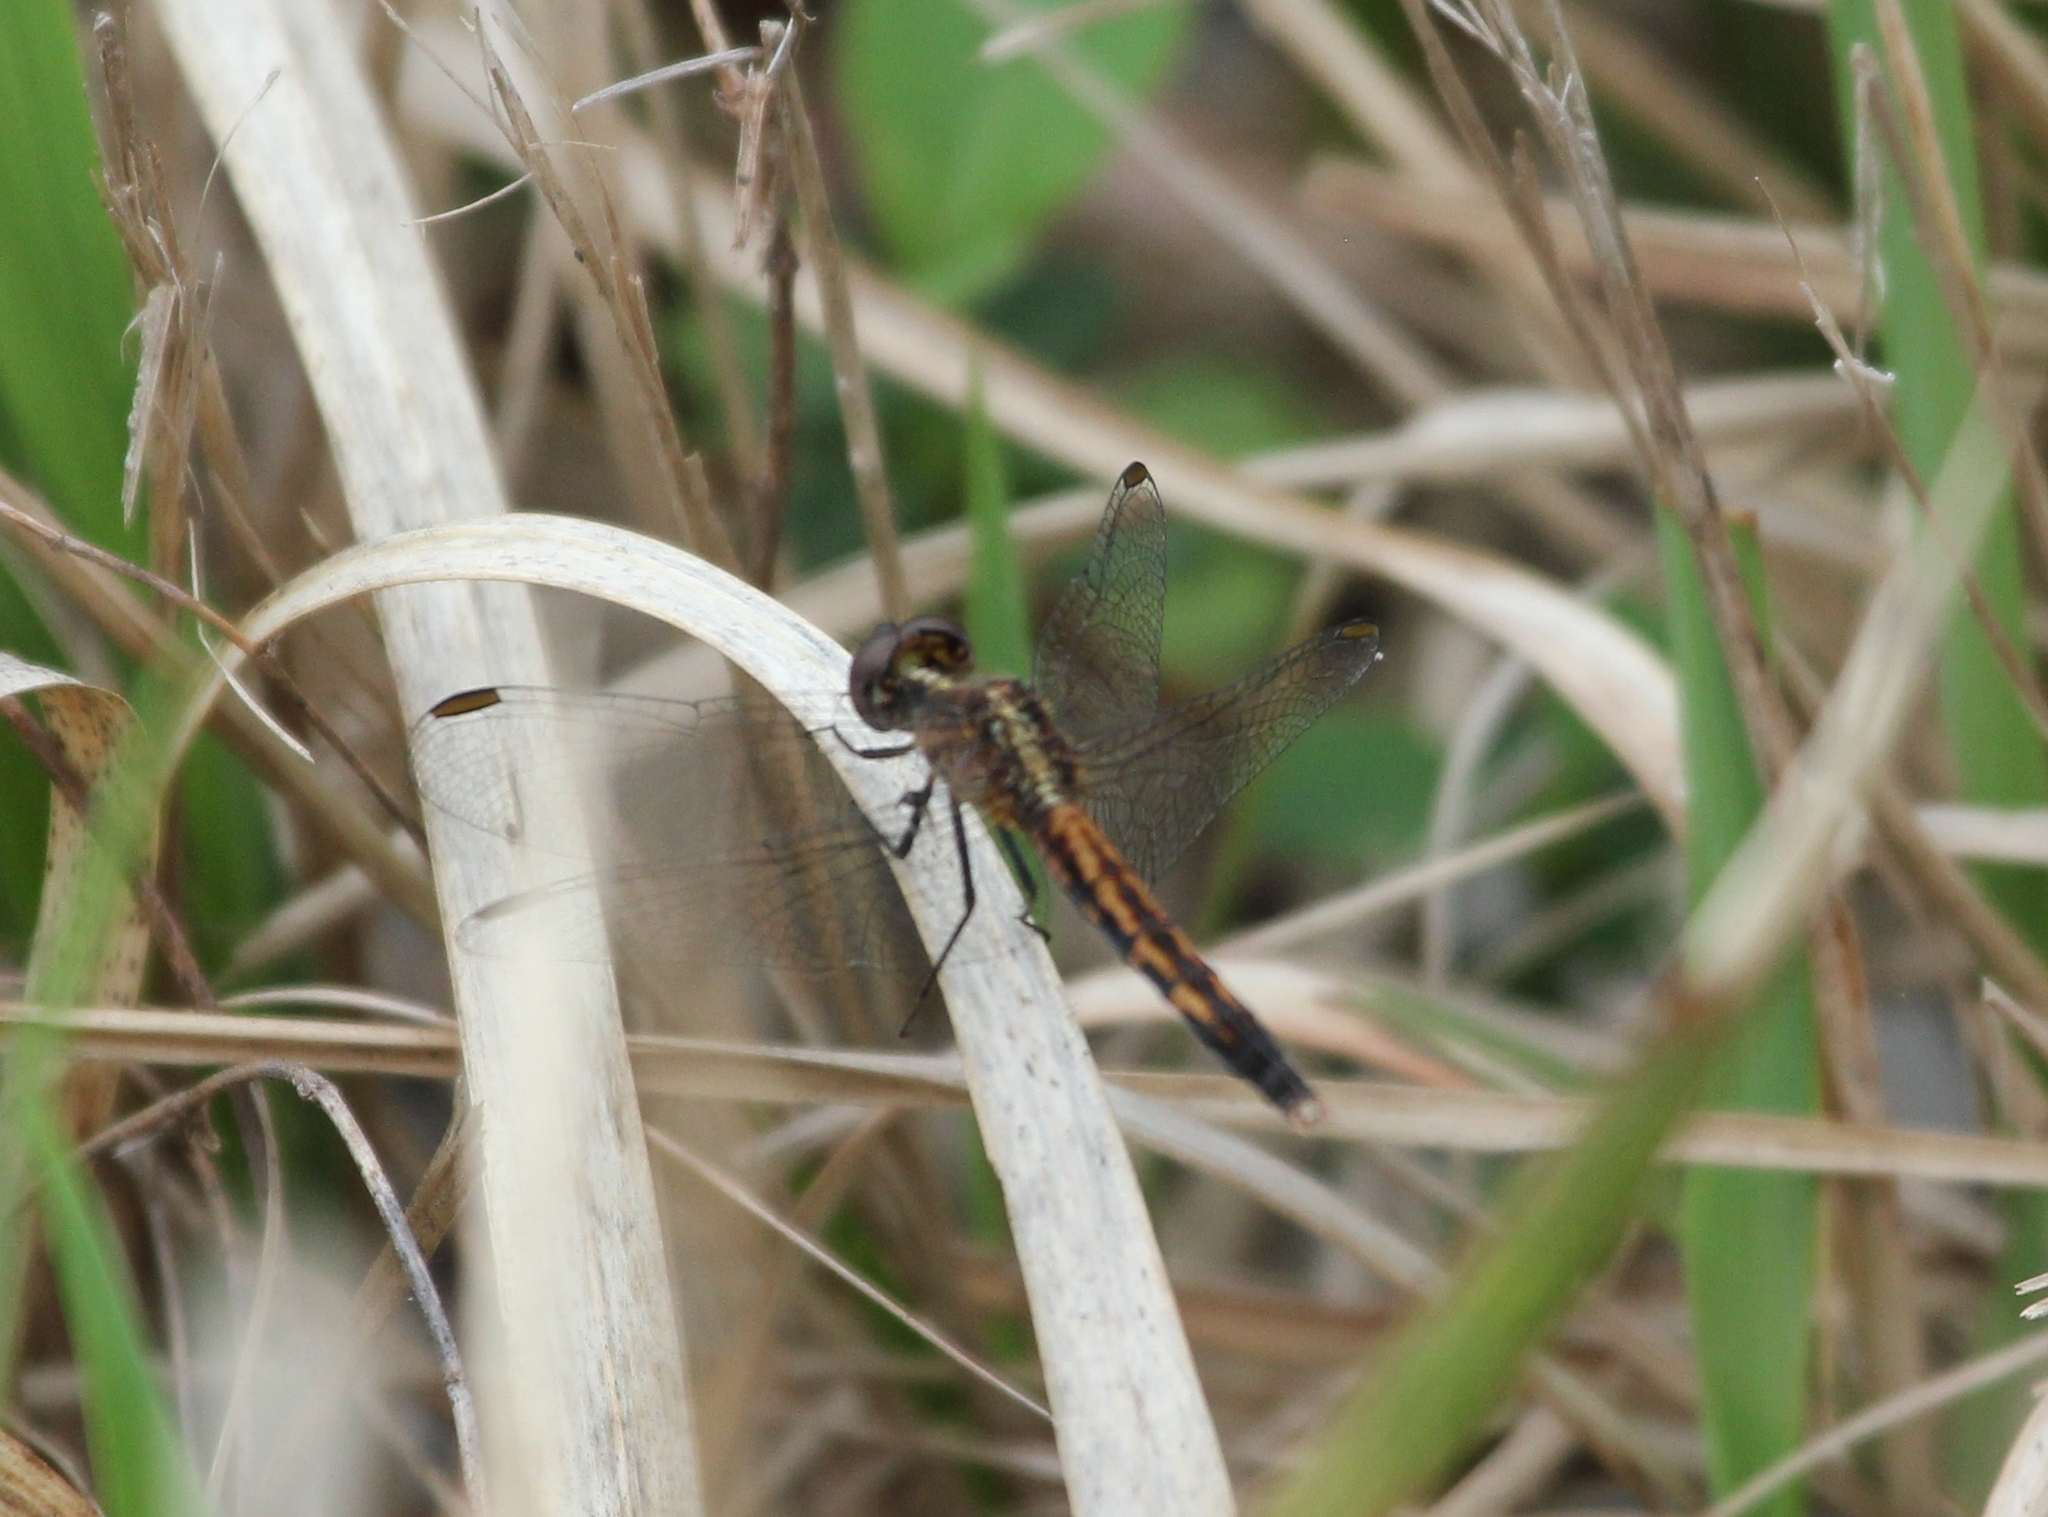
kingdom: Animalia
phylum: Arthropoda
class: Insecta
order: Odonata
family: Libellulidae
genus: Erythrodiplax
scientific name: Erythrodiplax minuscula
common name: Little blue dragonlet
